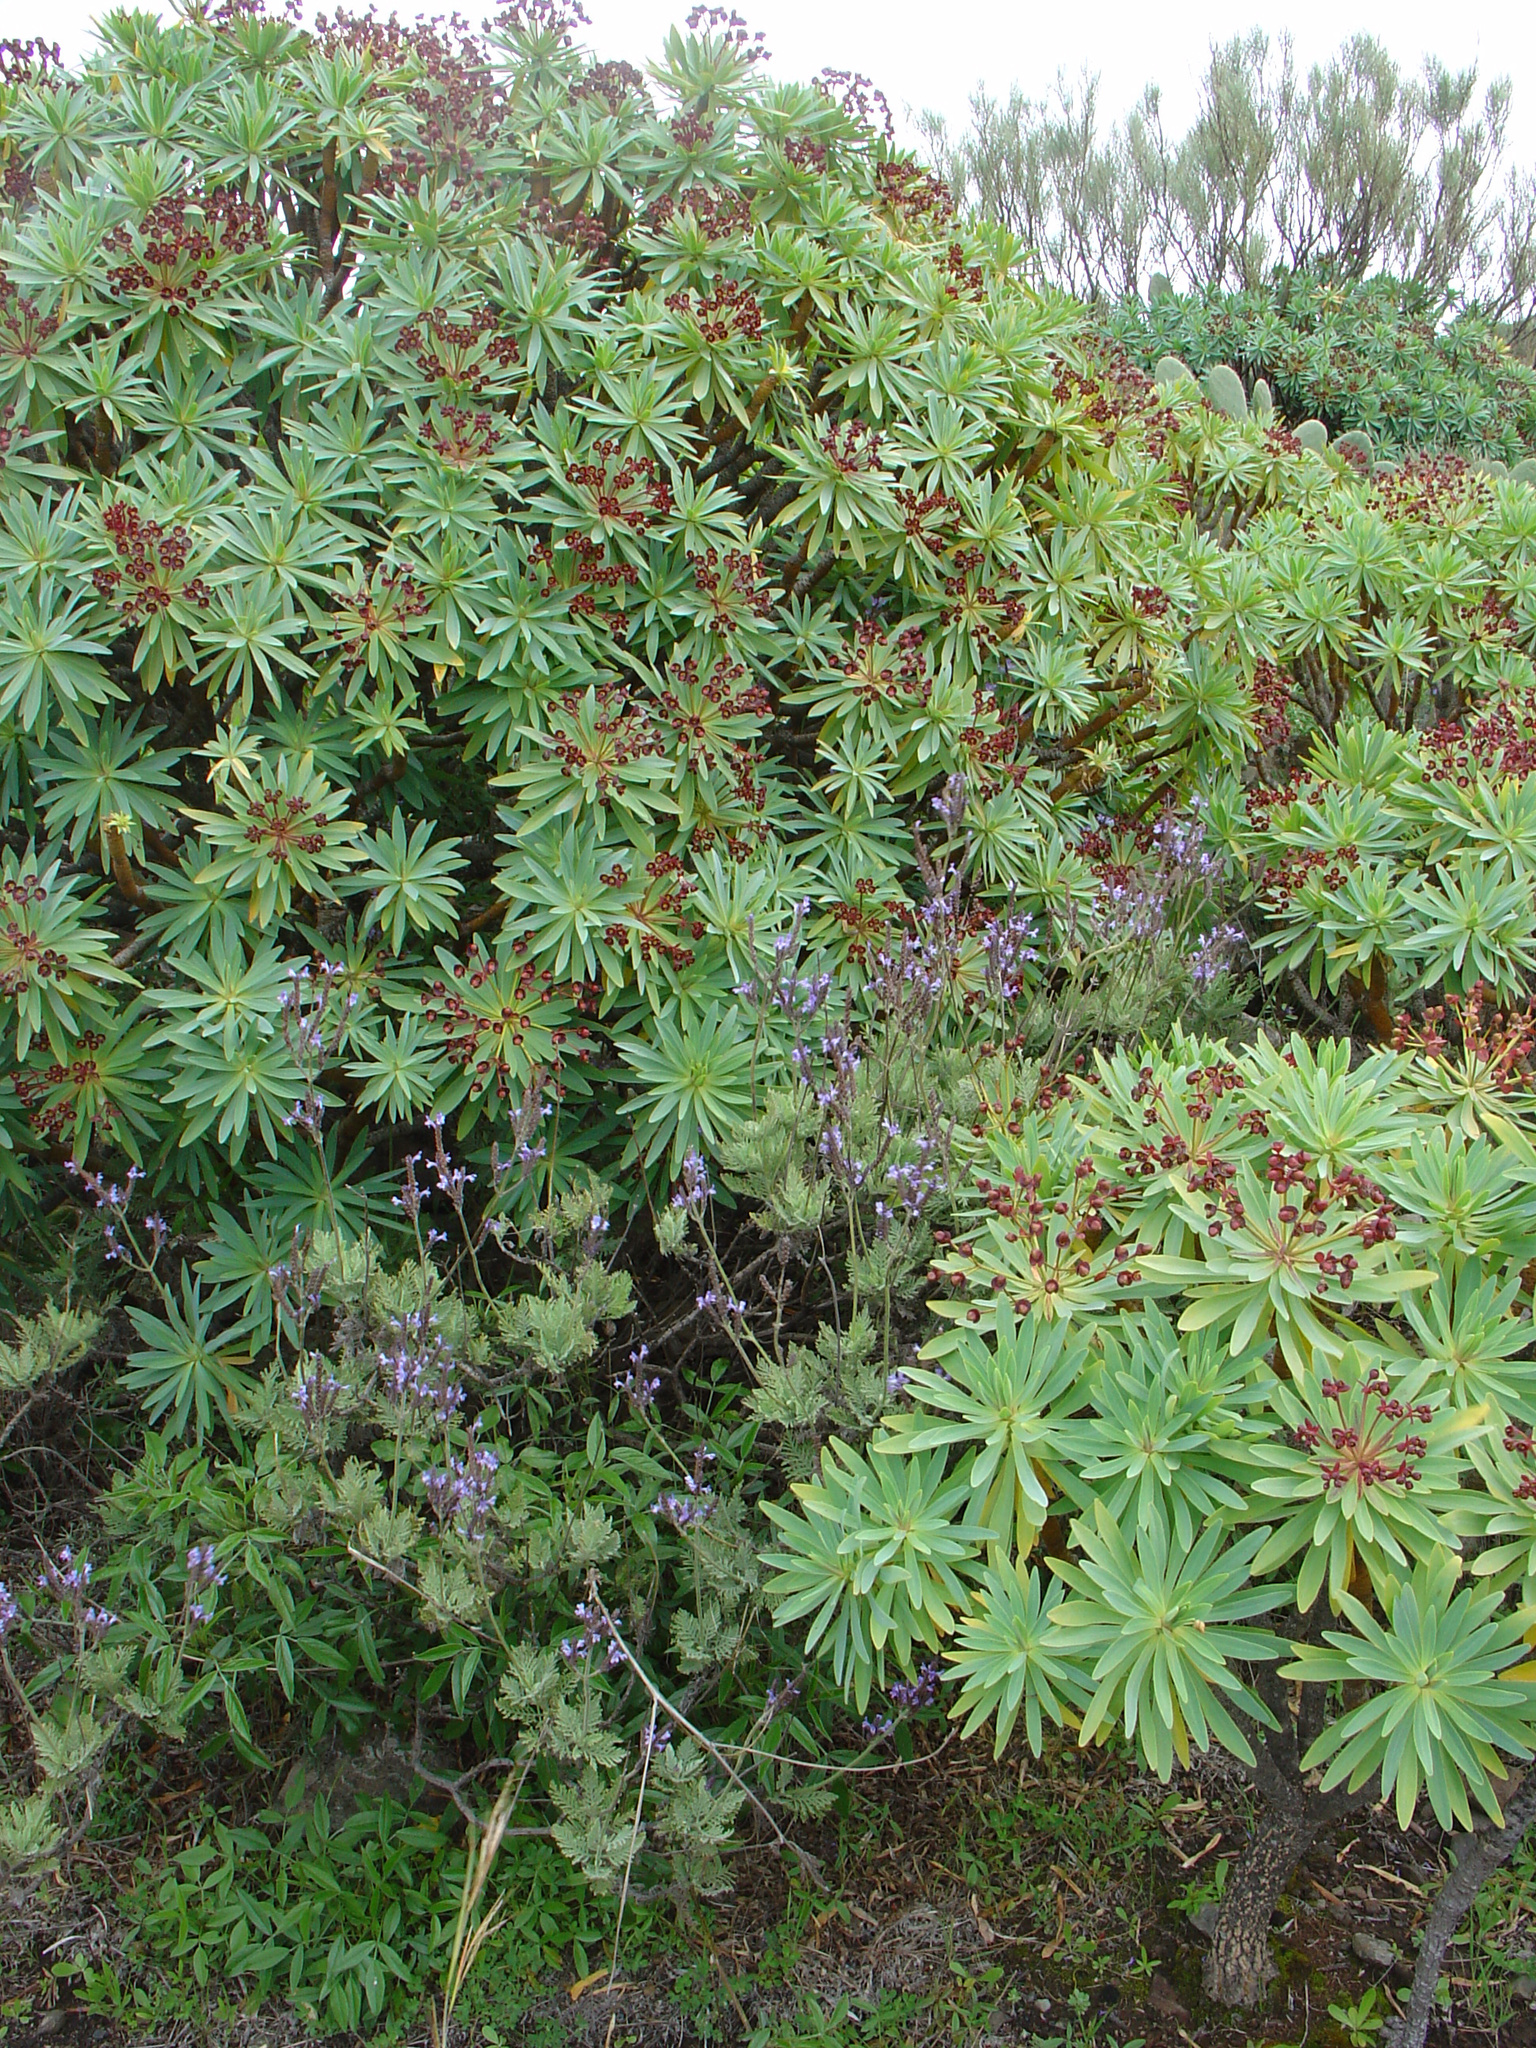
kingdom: Plantae
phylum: Tracheophyta
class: Magnoliopsida
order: Malpighiales
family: Euphorbiaceae
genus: Euphorbia
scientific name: Euphorbia atropurpurea
